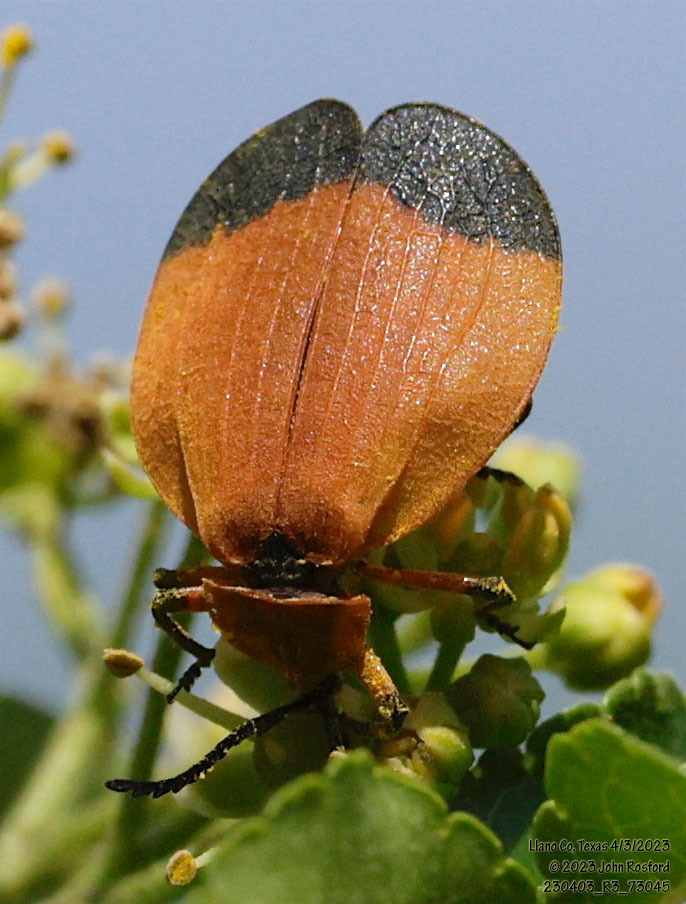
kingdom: Animalia
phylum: Arthropoda
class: Insecta
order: Coleoptera
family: Lycidae
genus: Lycus
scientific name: Lycus arizonensis
